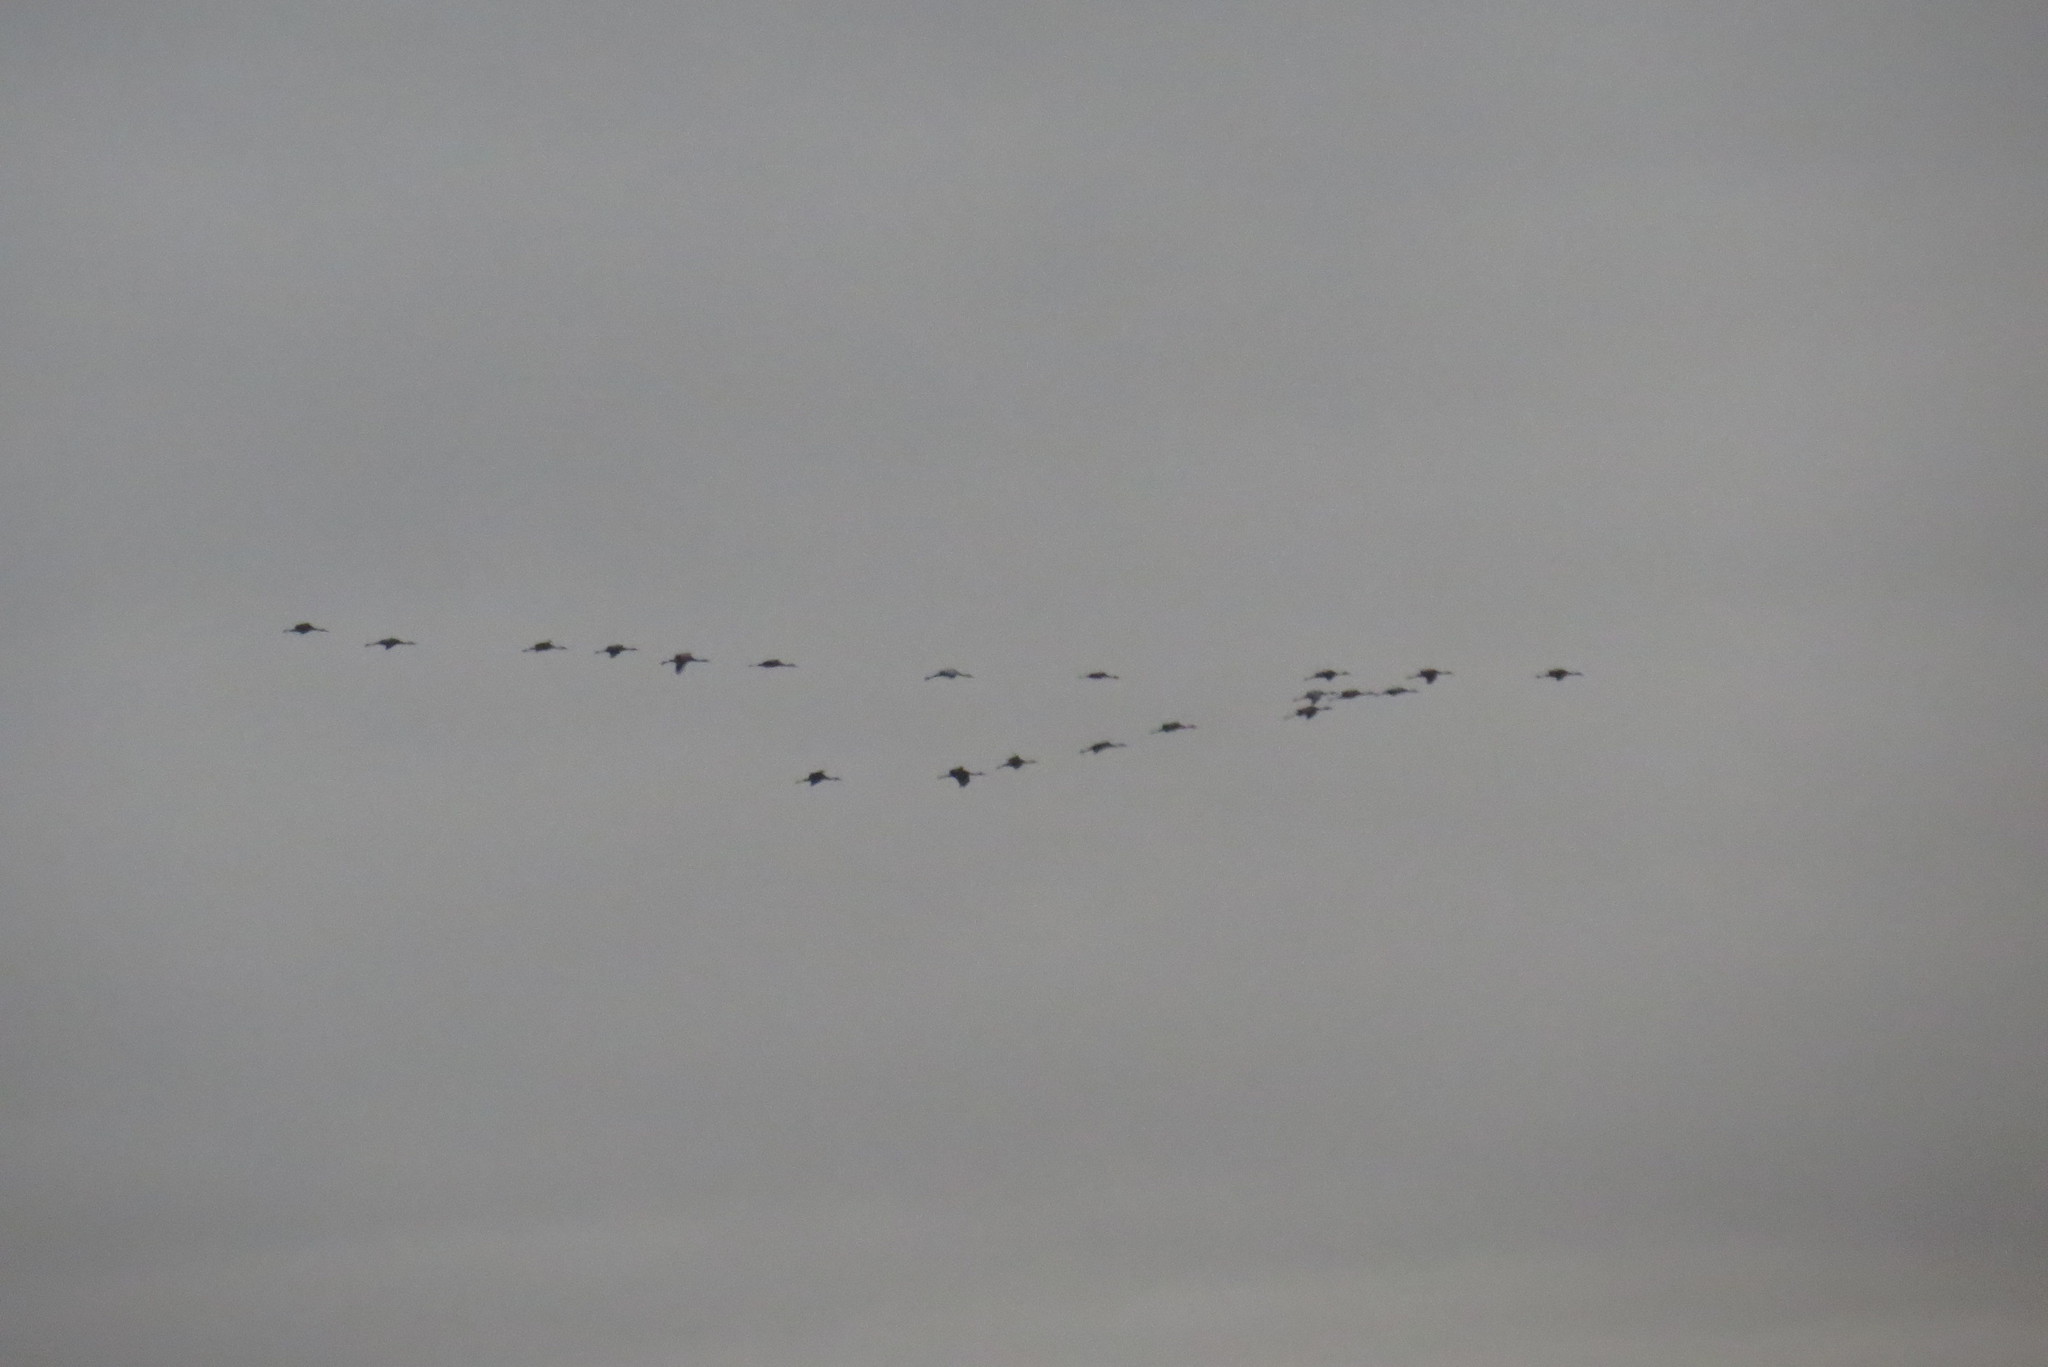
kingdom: Animalia
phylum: Chordata
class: Aves
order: Gruiformes
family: Gruidae
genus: Grus
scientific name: Grus canadensis
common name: Sandhill crane
